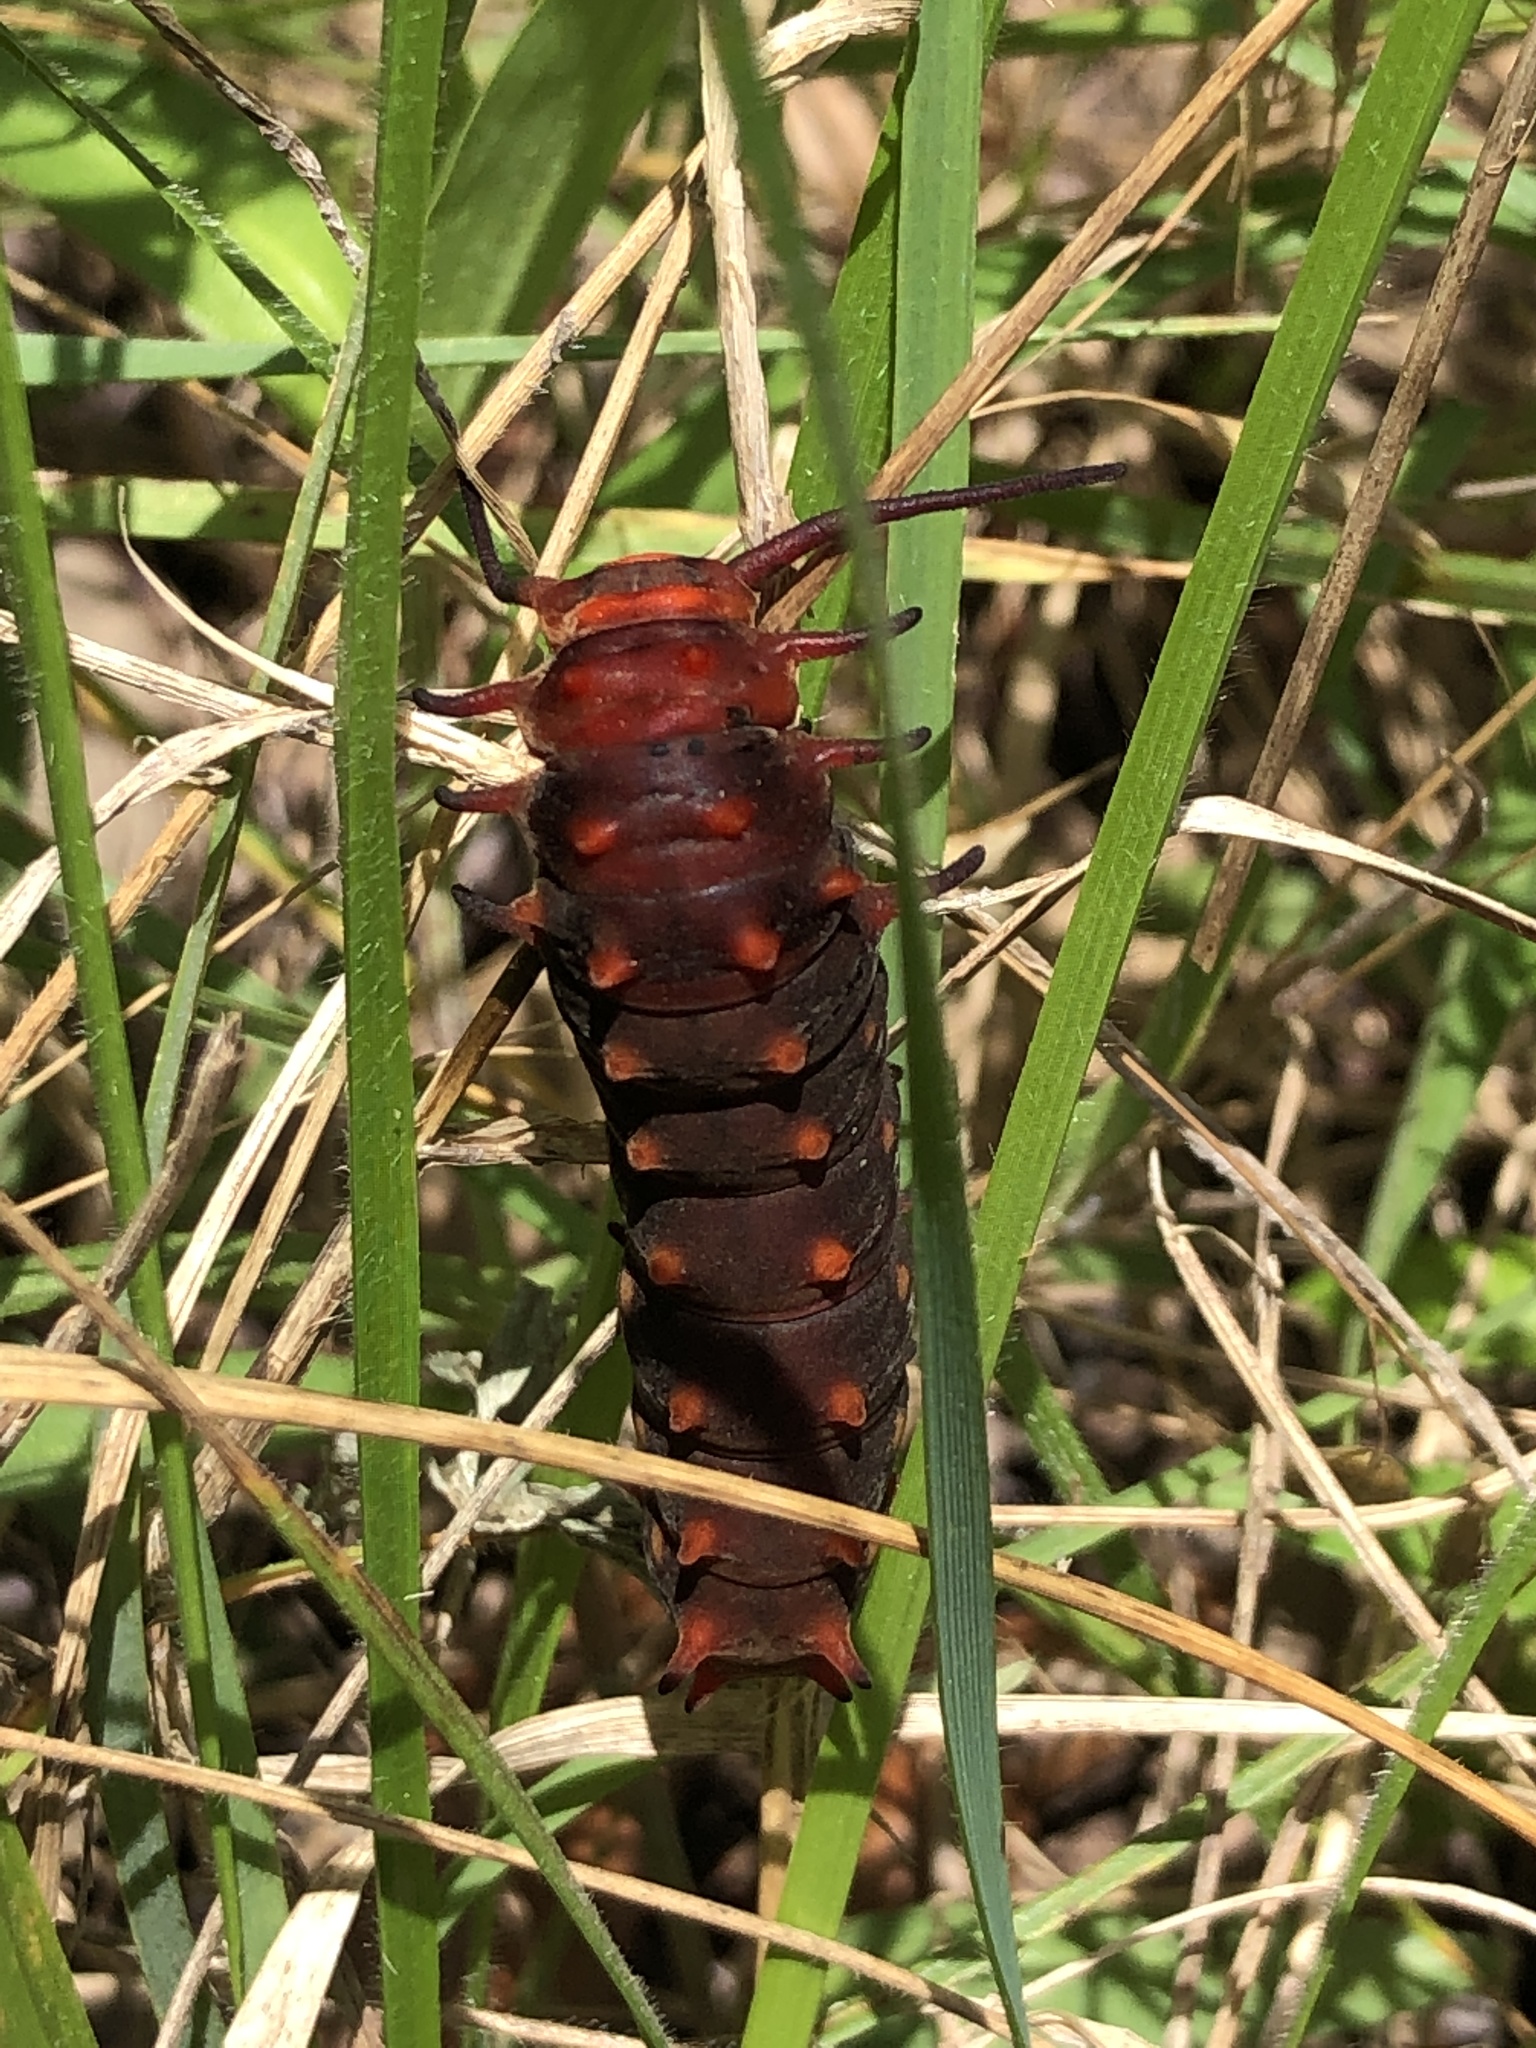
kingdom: Animalia
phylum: Arthropoda
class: Insecta
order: Lepidoptera
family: Papilionidae
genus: Battus
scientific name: Battus philenor
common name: Pipevine swallowtail
